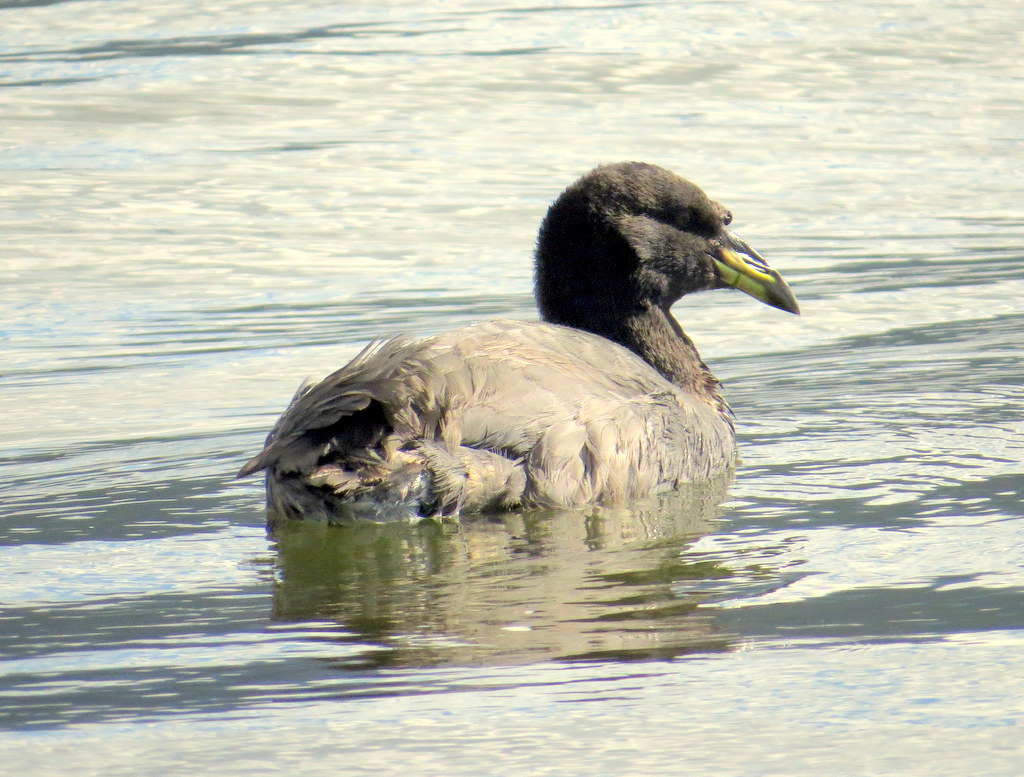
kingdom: Animalia
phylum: Chordata
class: Aves
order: Gruiformes
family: Rallidae
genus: Fulica
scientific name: Fulica cornuta
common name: Horned coot
